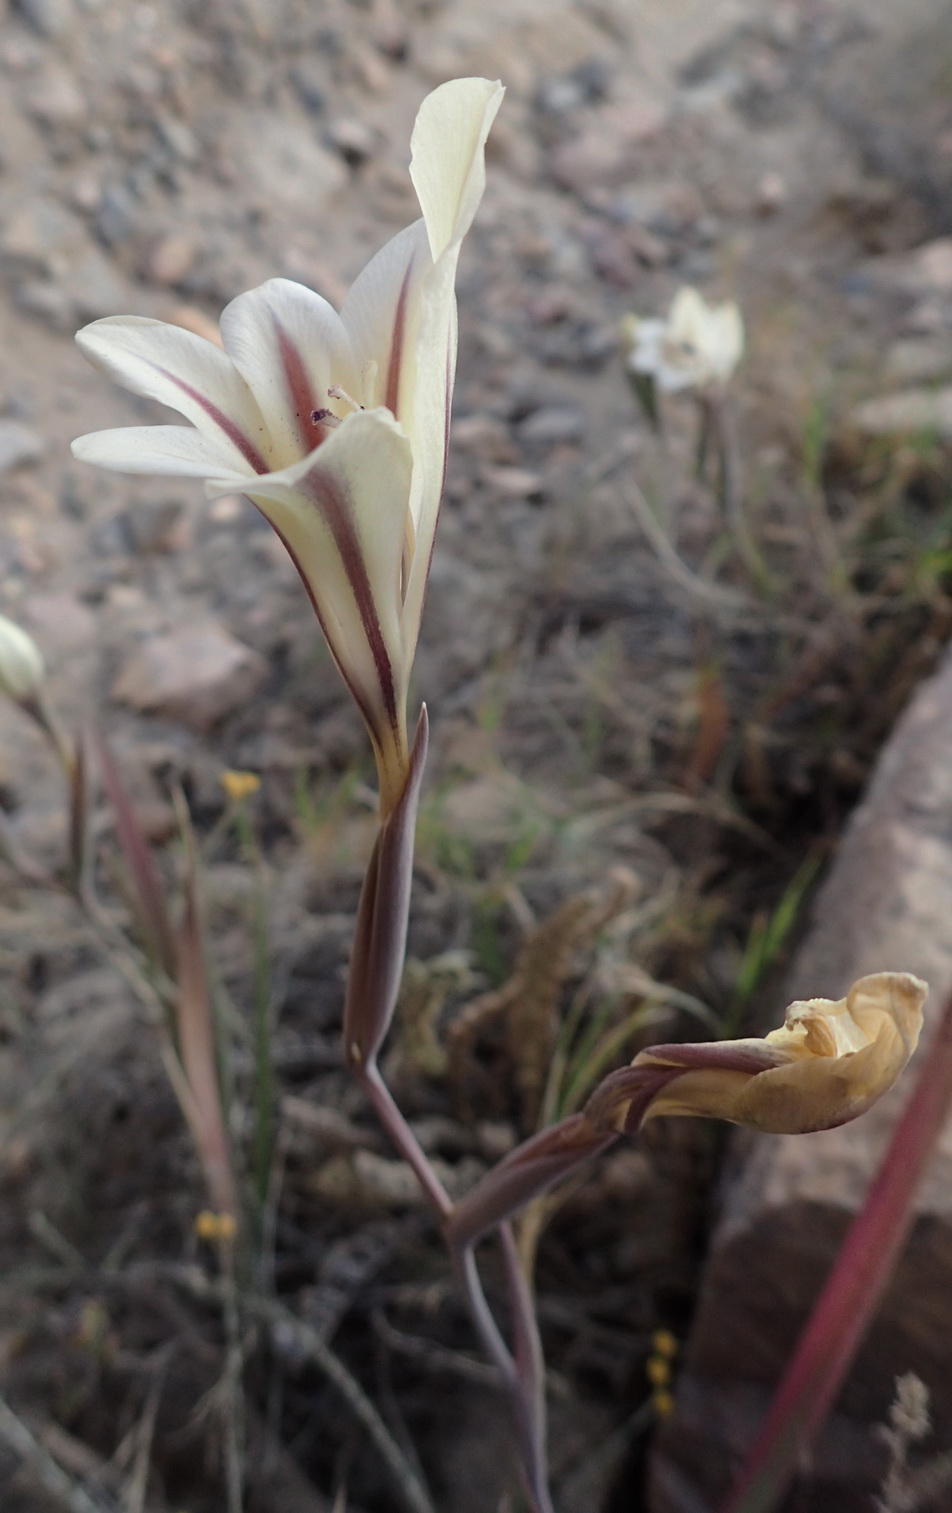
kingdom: Plantae
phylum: Tracheophyta
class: Liliopsida
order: Asparagales
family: Iridaceae
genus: Gladiolus
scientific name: Gladiolus floribundus
